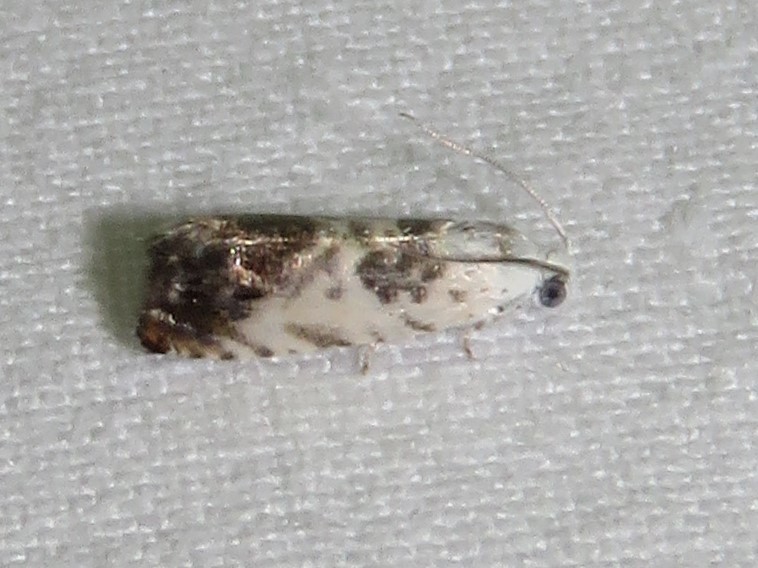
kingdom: Animalia
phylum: Arthropoda
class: Insecta
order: Lepidoptera
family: Tortricidae
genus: Cydia
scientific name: Cydia gallaesaliciana
